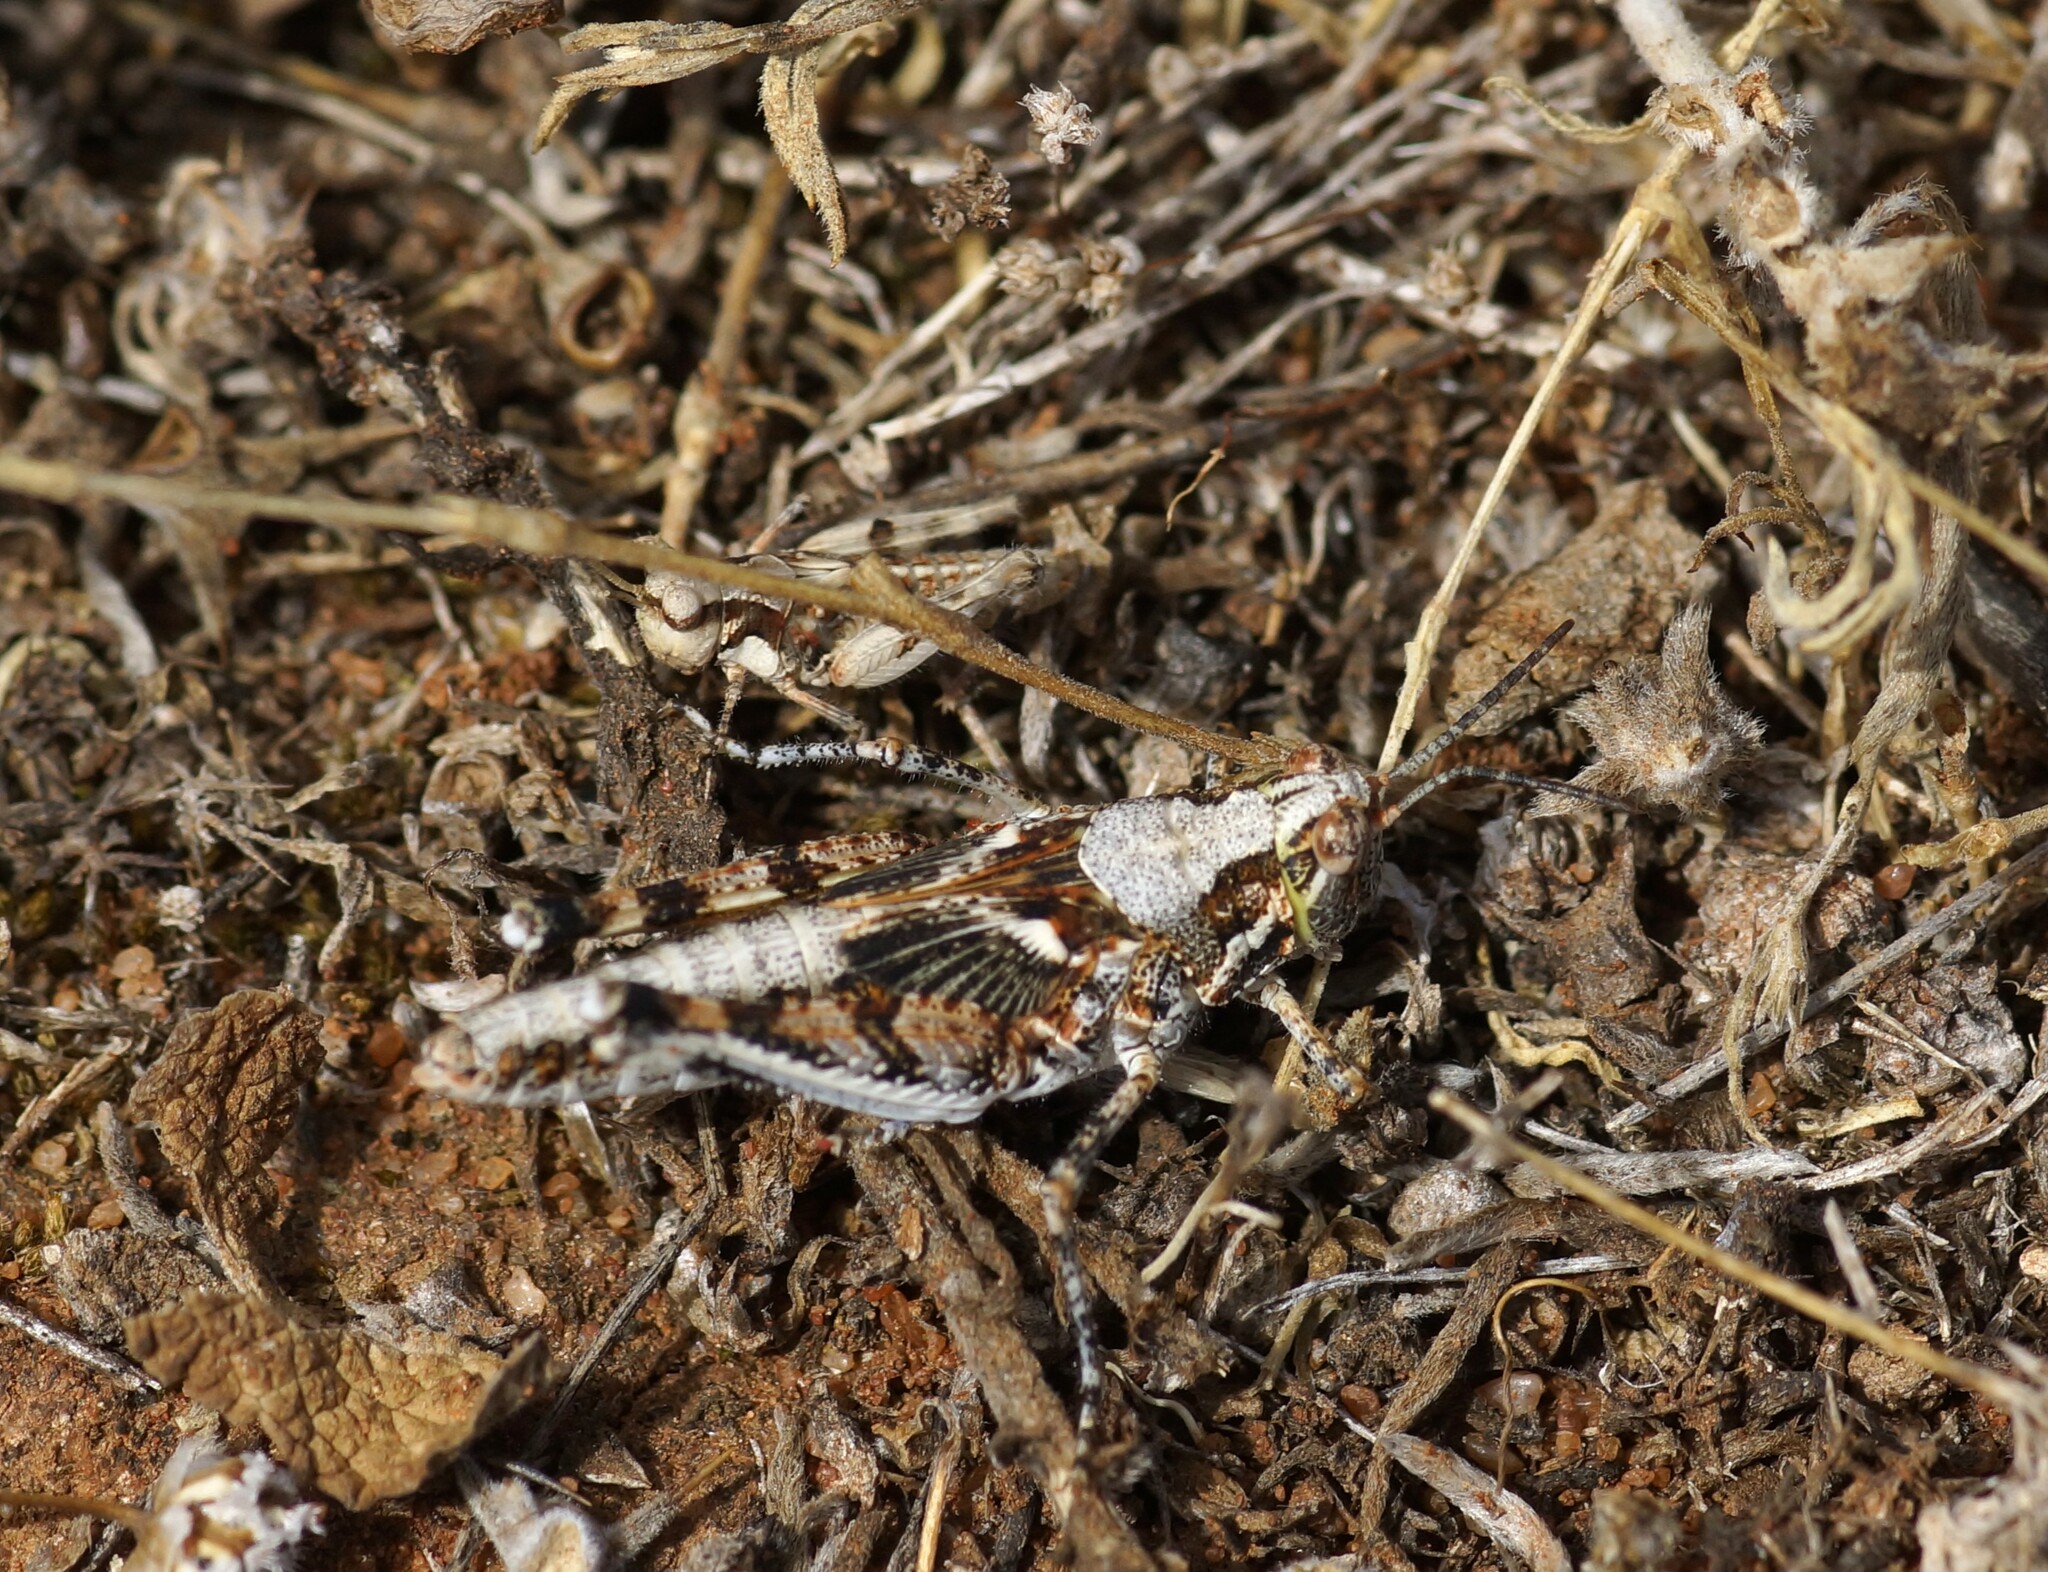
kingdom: Animalia
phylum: Arthropoda
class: Insecta
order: Orthoptera
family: Acrididae
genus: Urnisa
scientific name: Urnisa guttulosa
